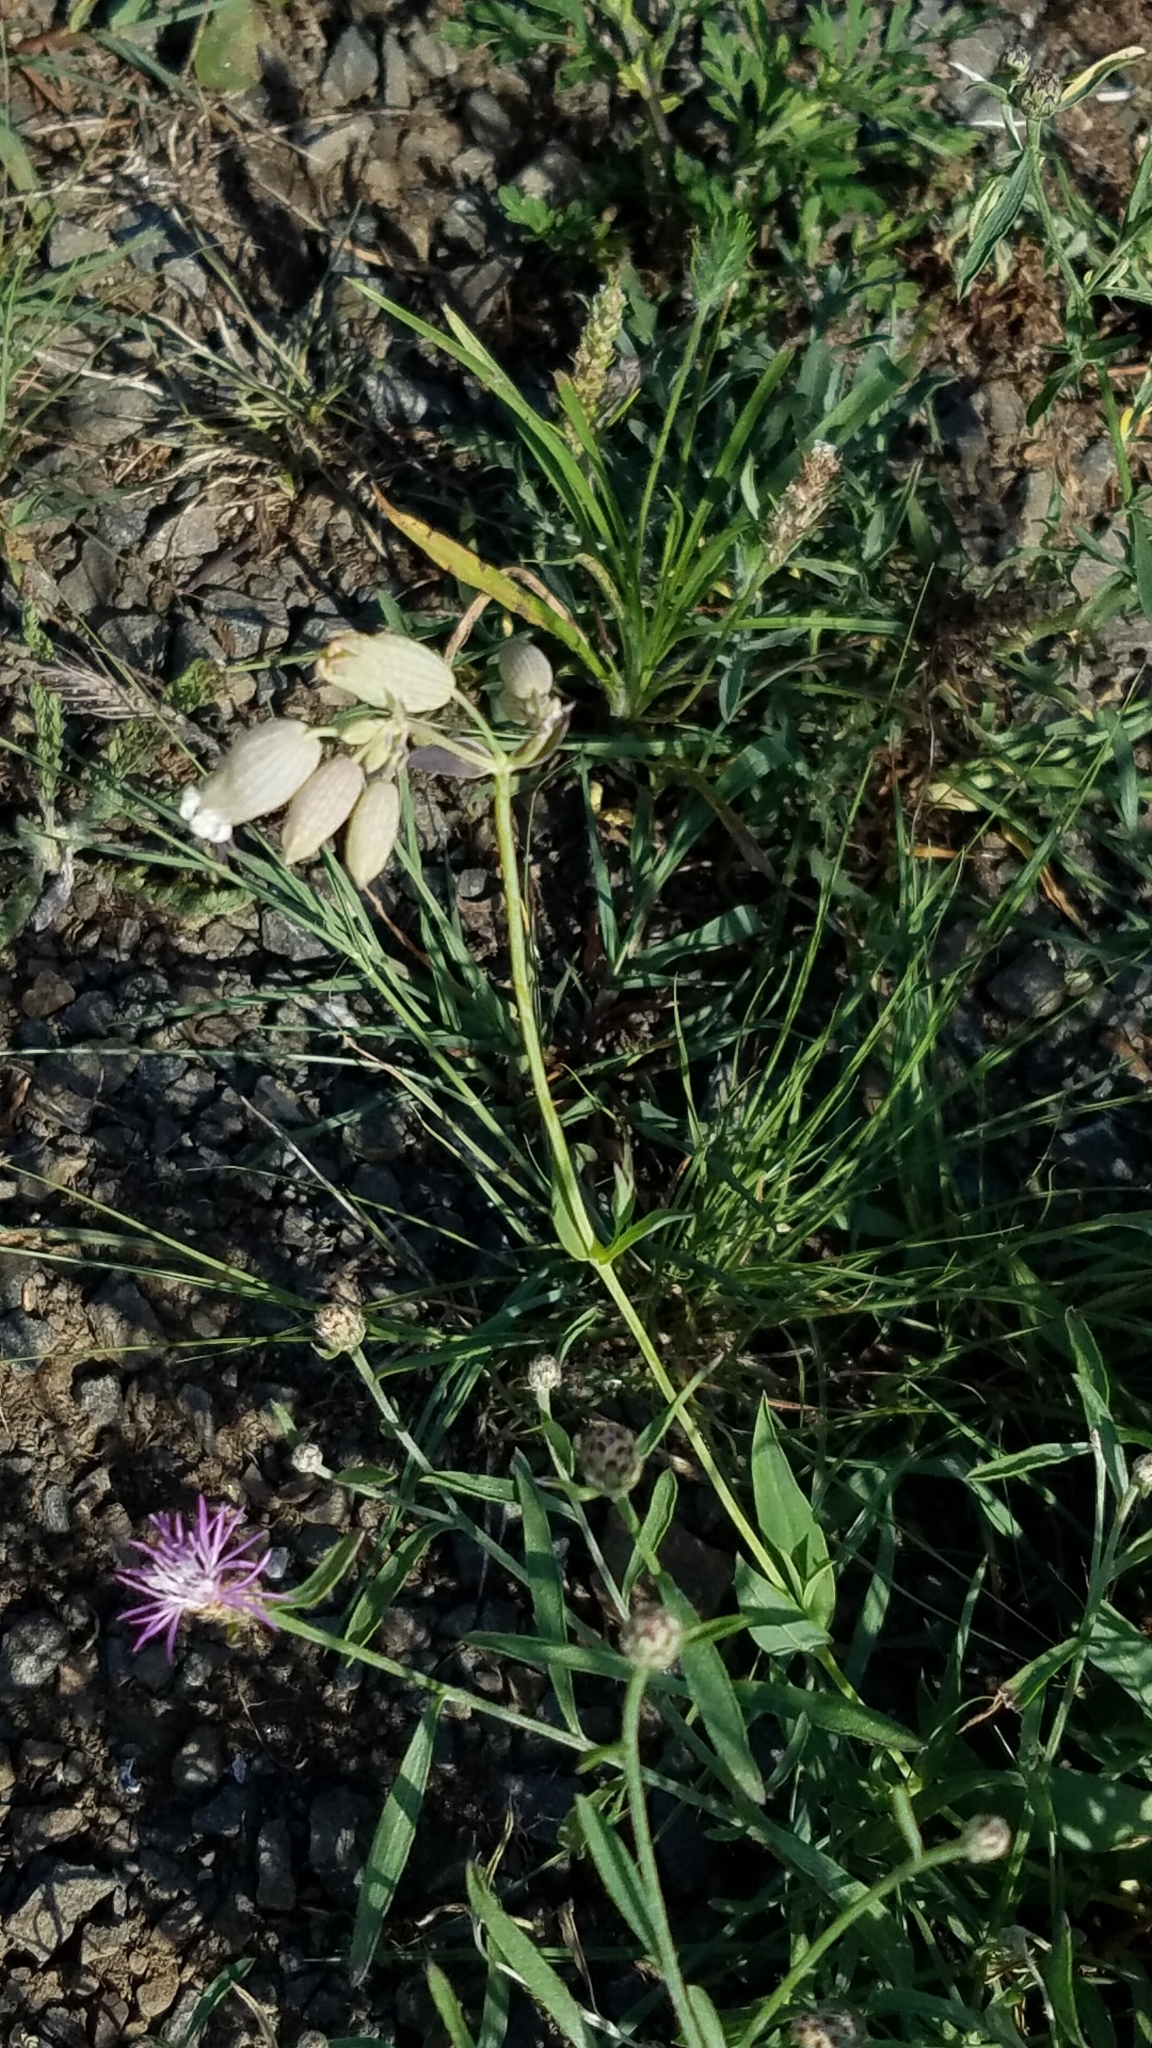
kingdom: Plantae
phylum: Tracheophyta
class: Magnoliopsida
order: Caryophyllales
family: Caryophyllaceae
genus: Silene
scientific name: Silene vulgaris
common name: Bladder campion
